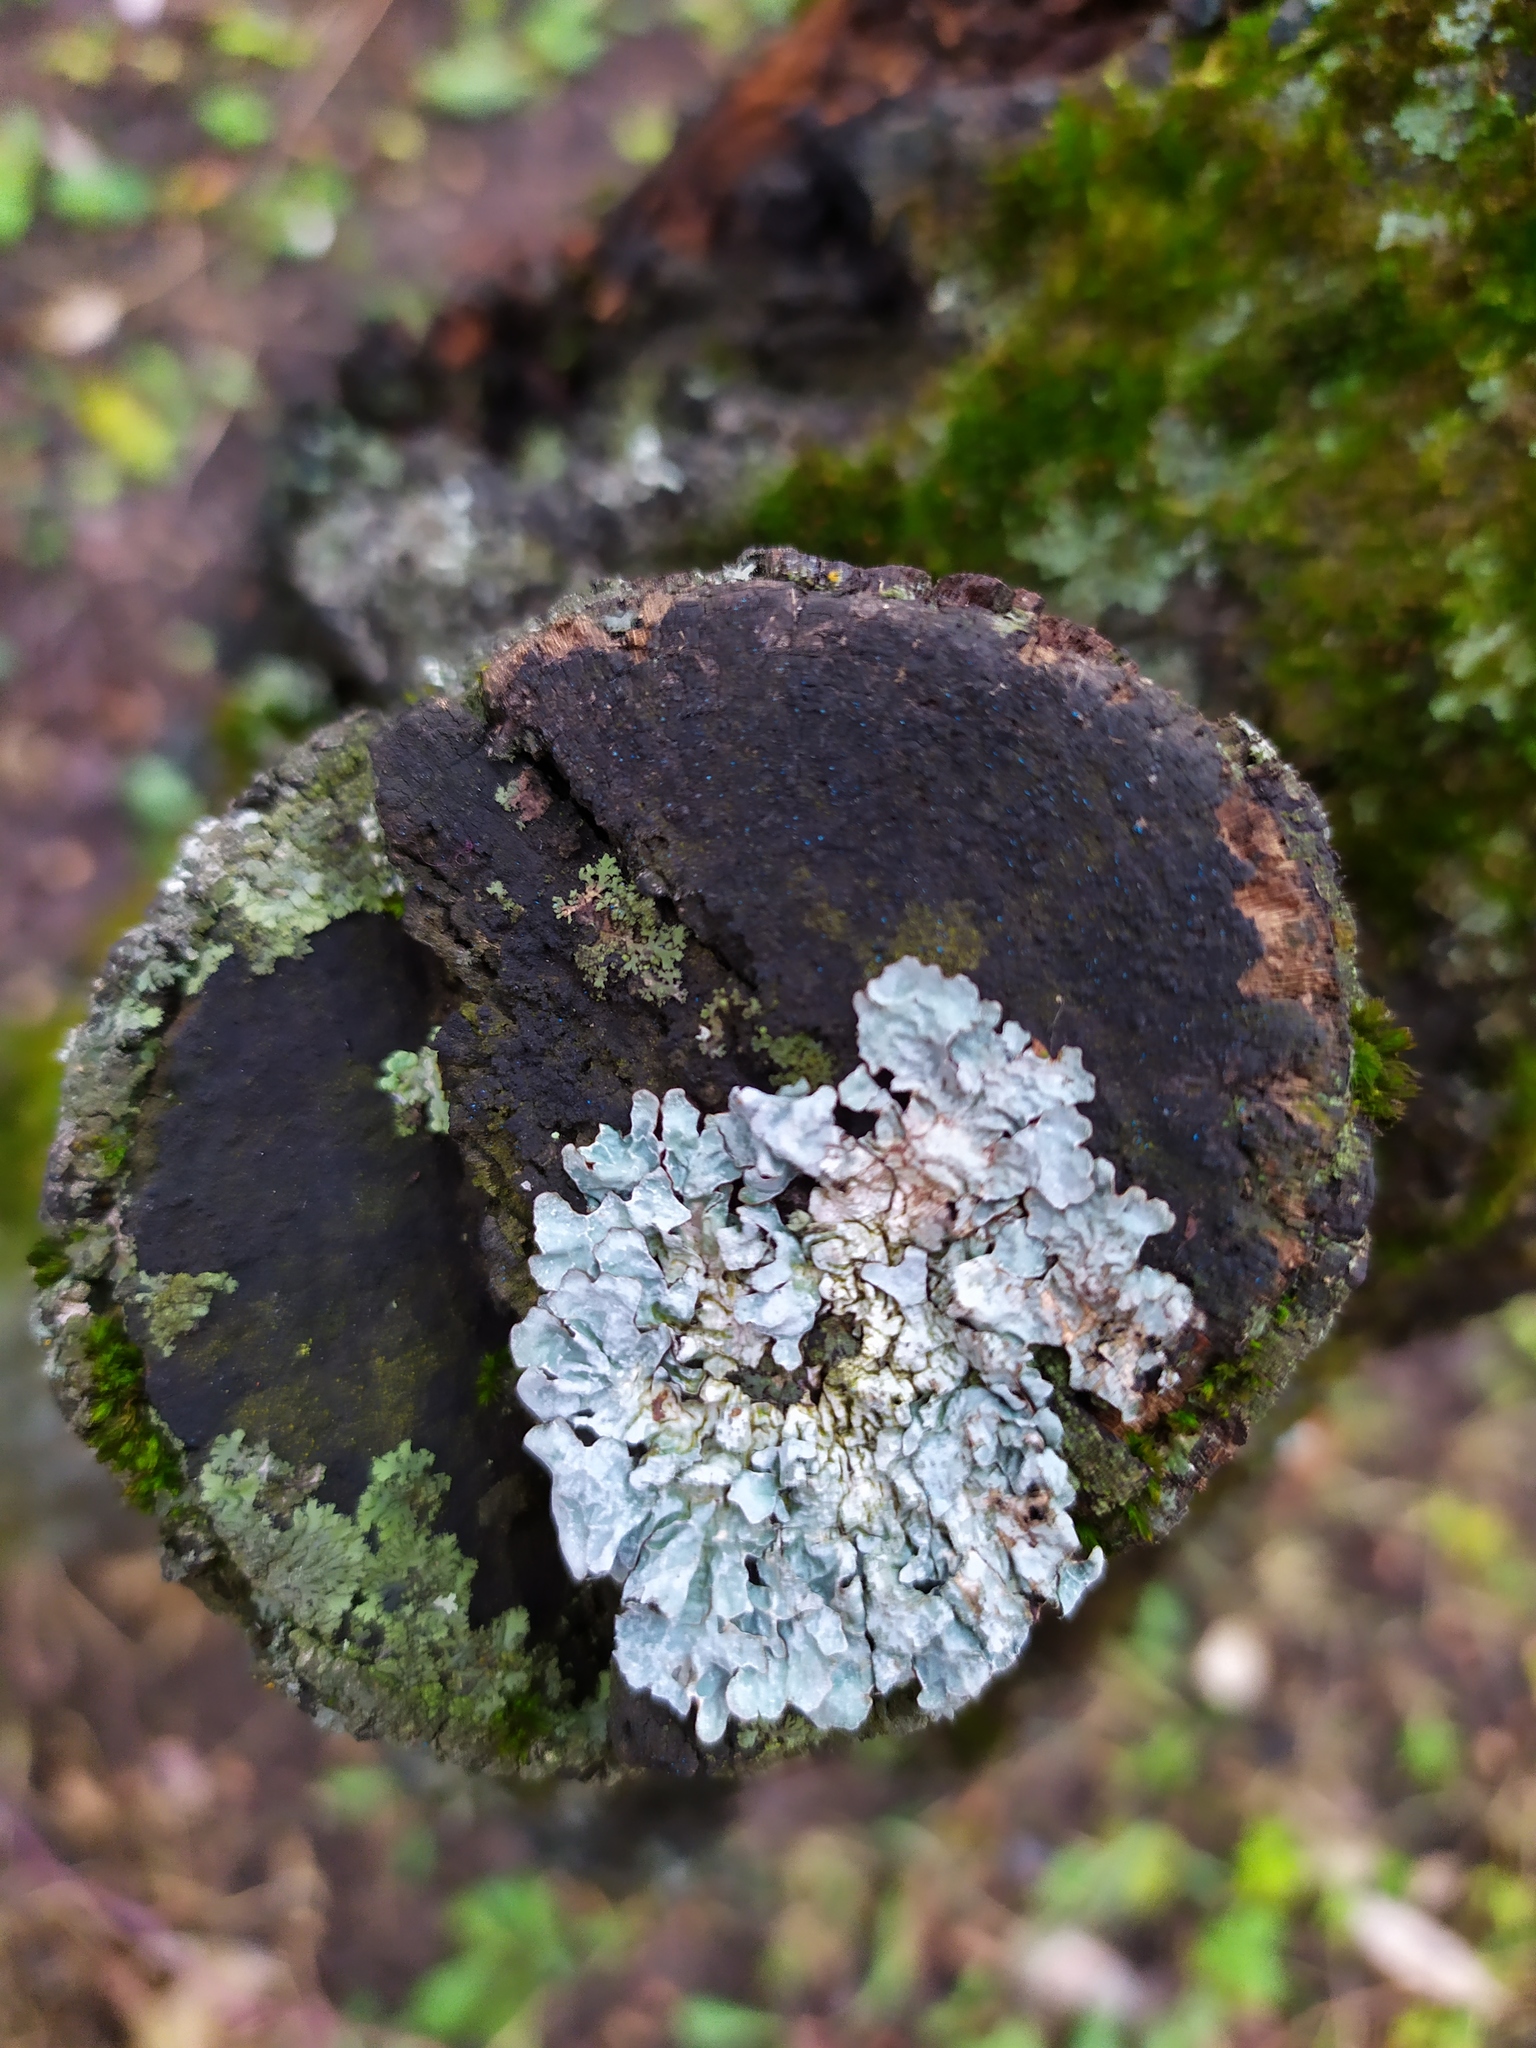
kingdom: Fungi
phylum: Ascomycota
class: Lecanoromycetes
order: Lecanorales
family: Parmeliaceae
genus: Parmelia
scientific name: Parmelia sulcata
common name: Netted shield lichen
